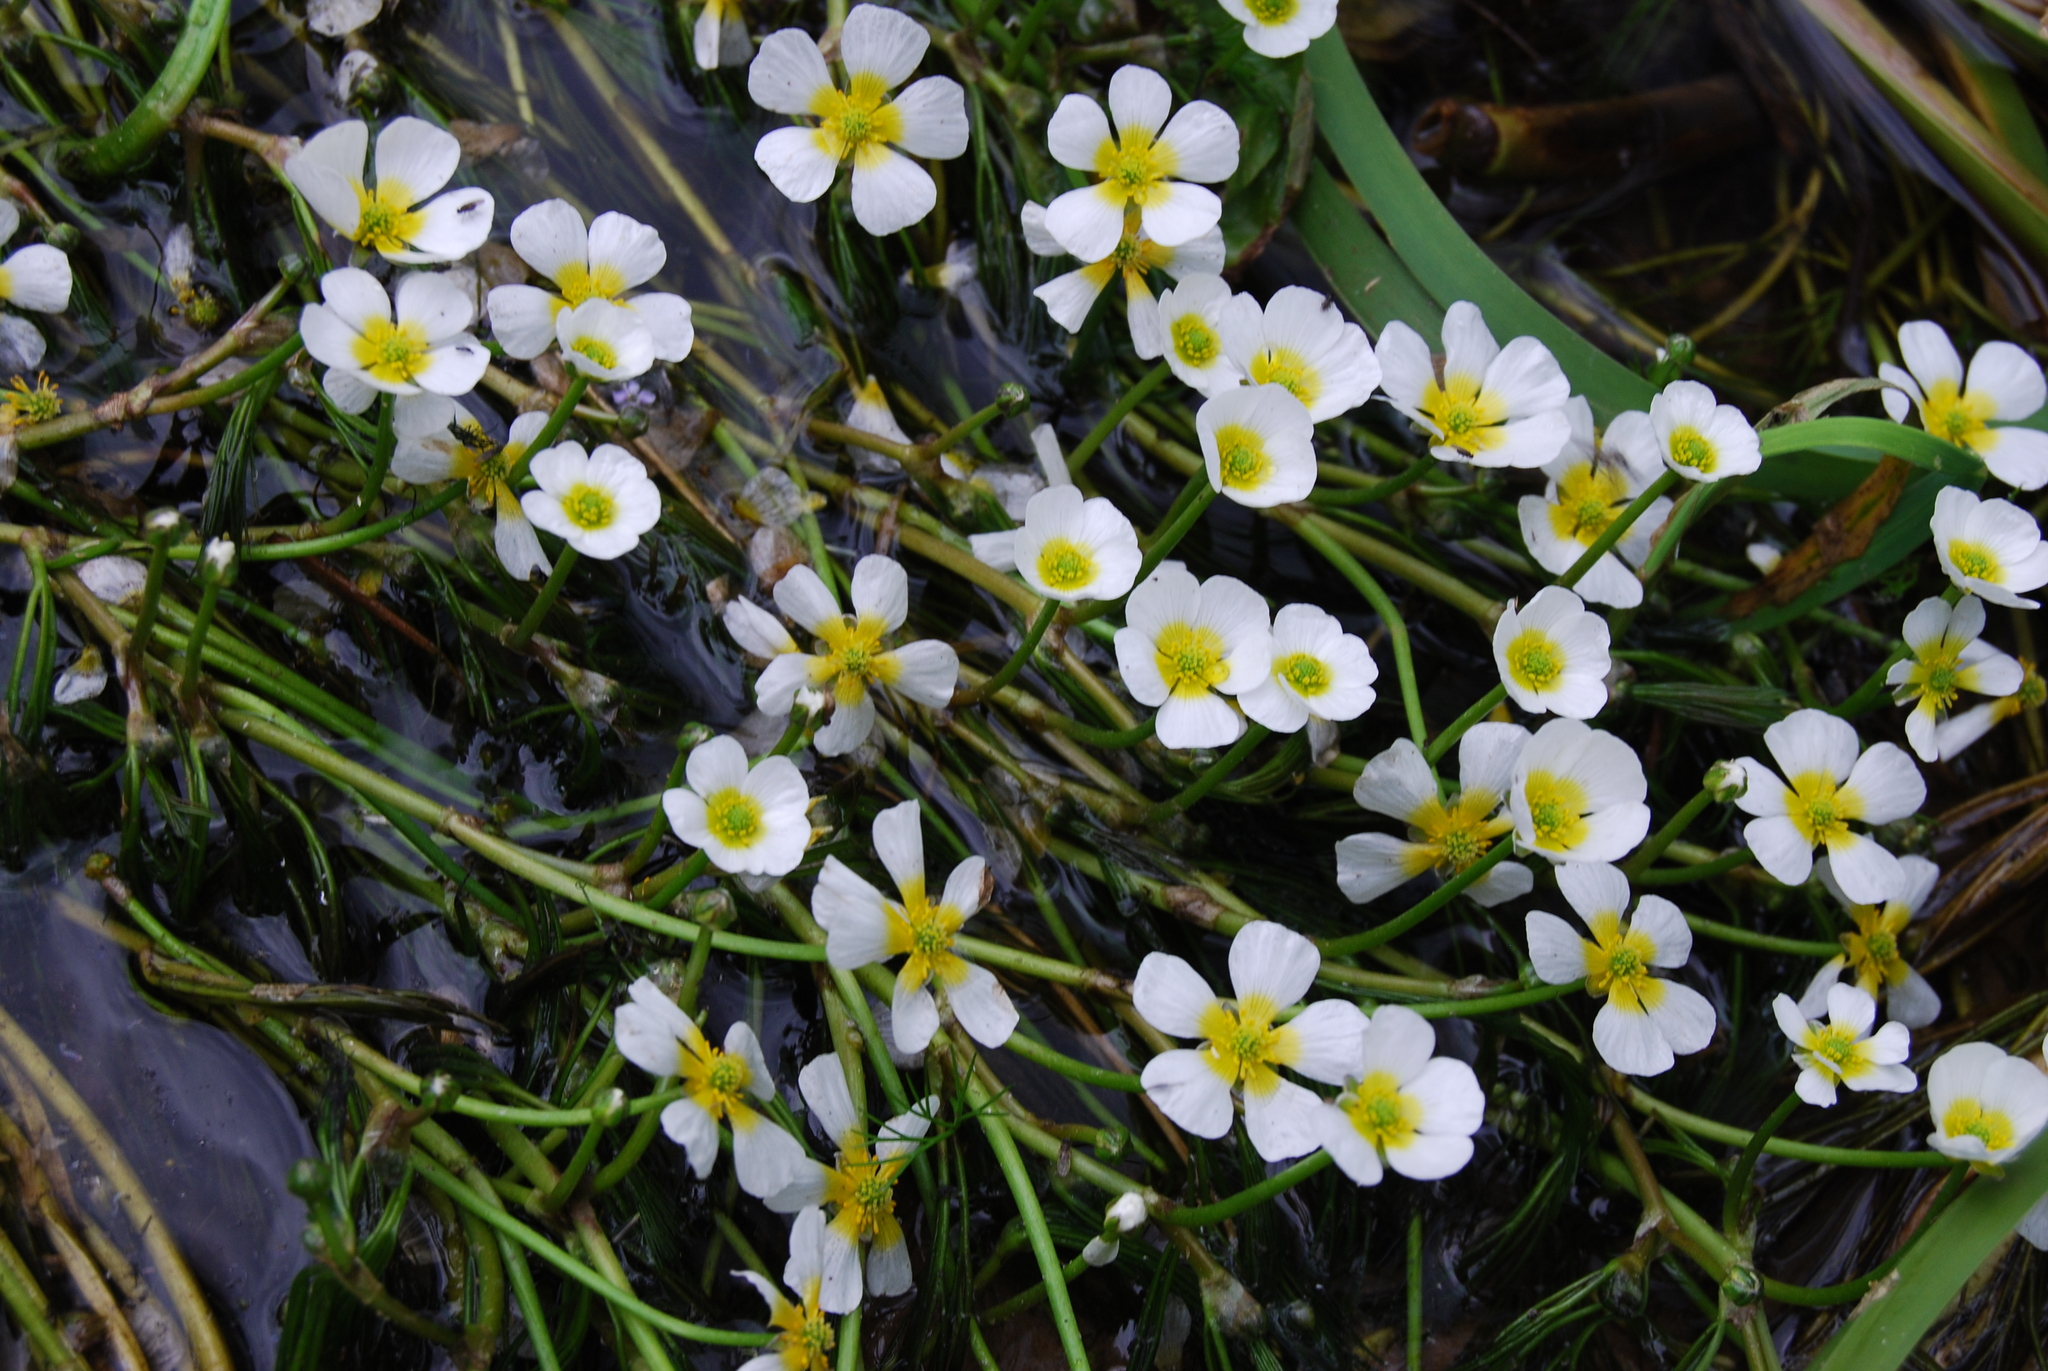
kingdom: Plantae
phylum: Tracheophyta
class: Magnoliopsida
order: Ranunculales
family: Ranunculaceae
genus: Ranunculus
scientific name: Ranunculus fluitans
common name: River water-crowfoot
